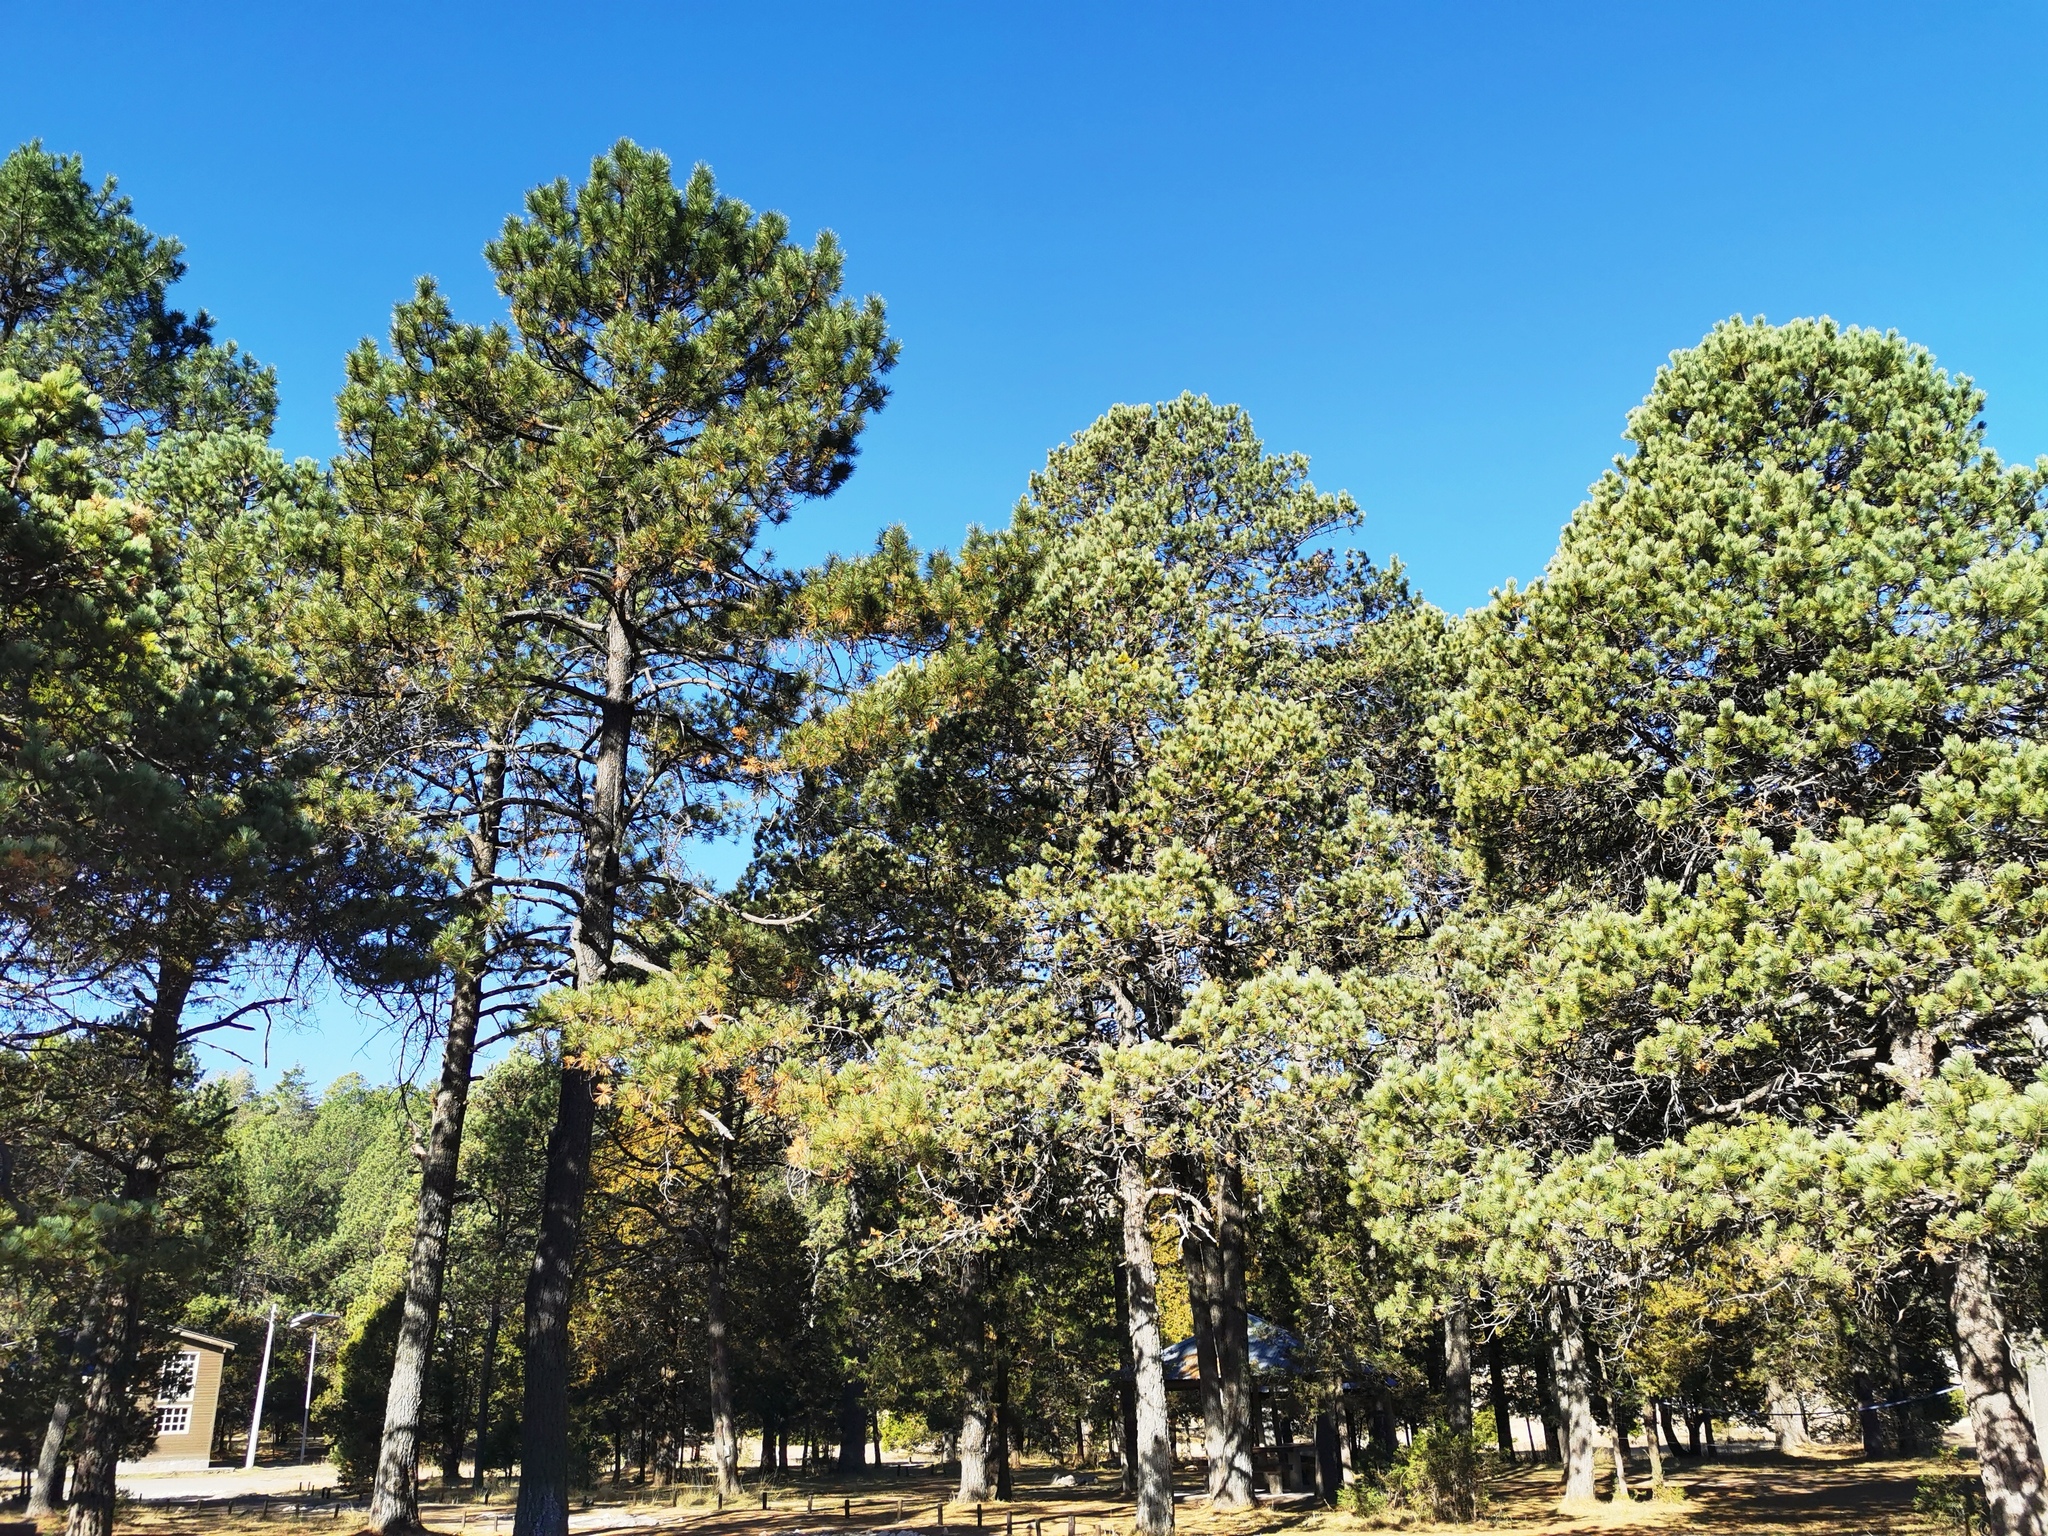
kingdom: Plantae
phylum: Tracheophyta
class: Pinopsida
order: Pinales
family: Pinaceae
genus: Pinus
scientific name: Pinus arizonica
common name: Arizona pine
